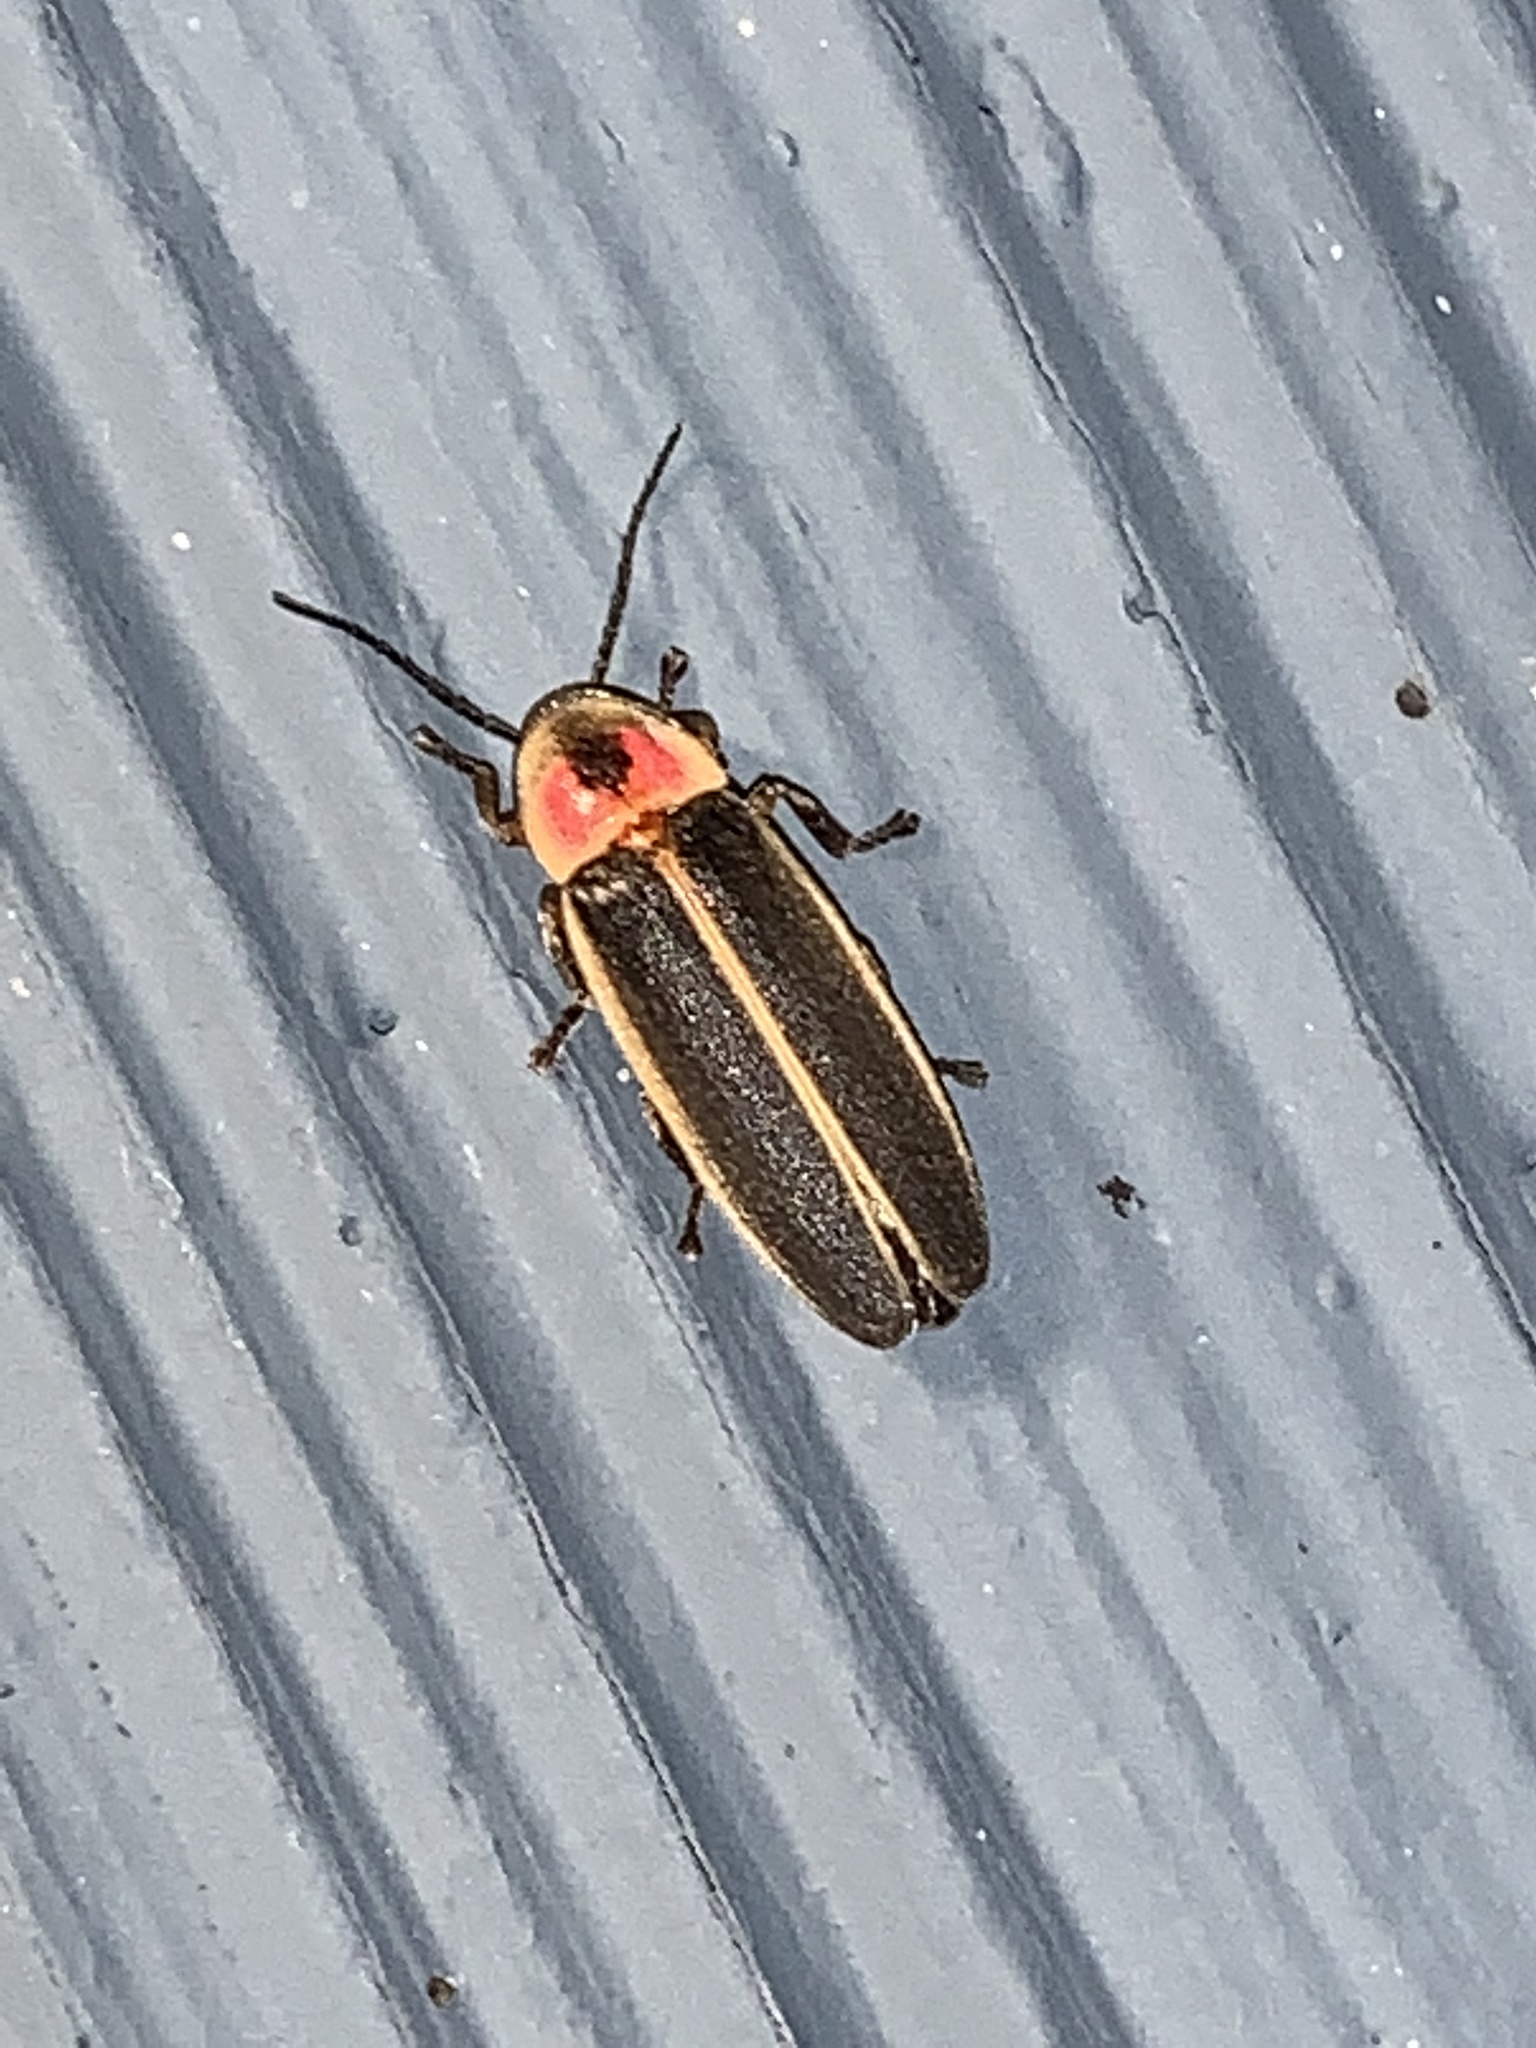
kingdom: Animalia
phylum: Arthropoda
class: Insecta
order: Coleoptera
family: Lampyridae
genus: Photinus
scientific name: Photinus pyralis
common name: Big dipper firefly
